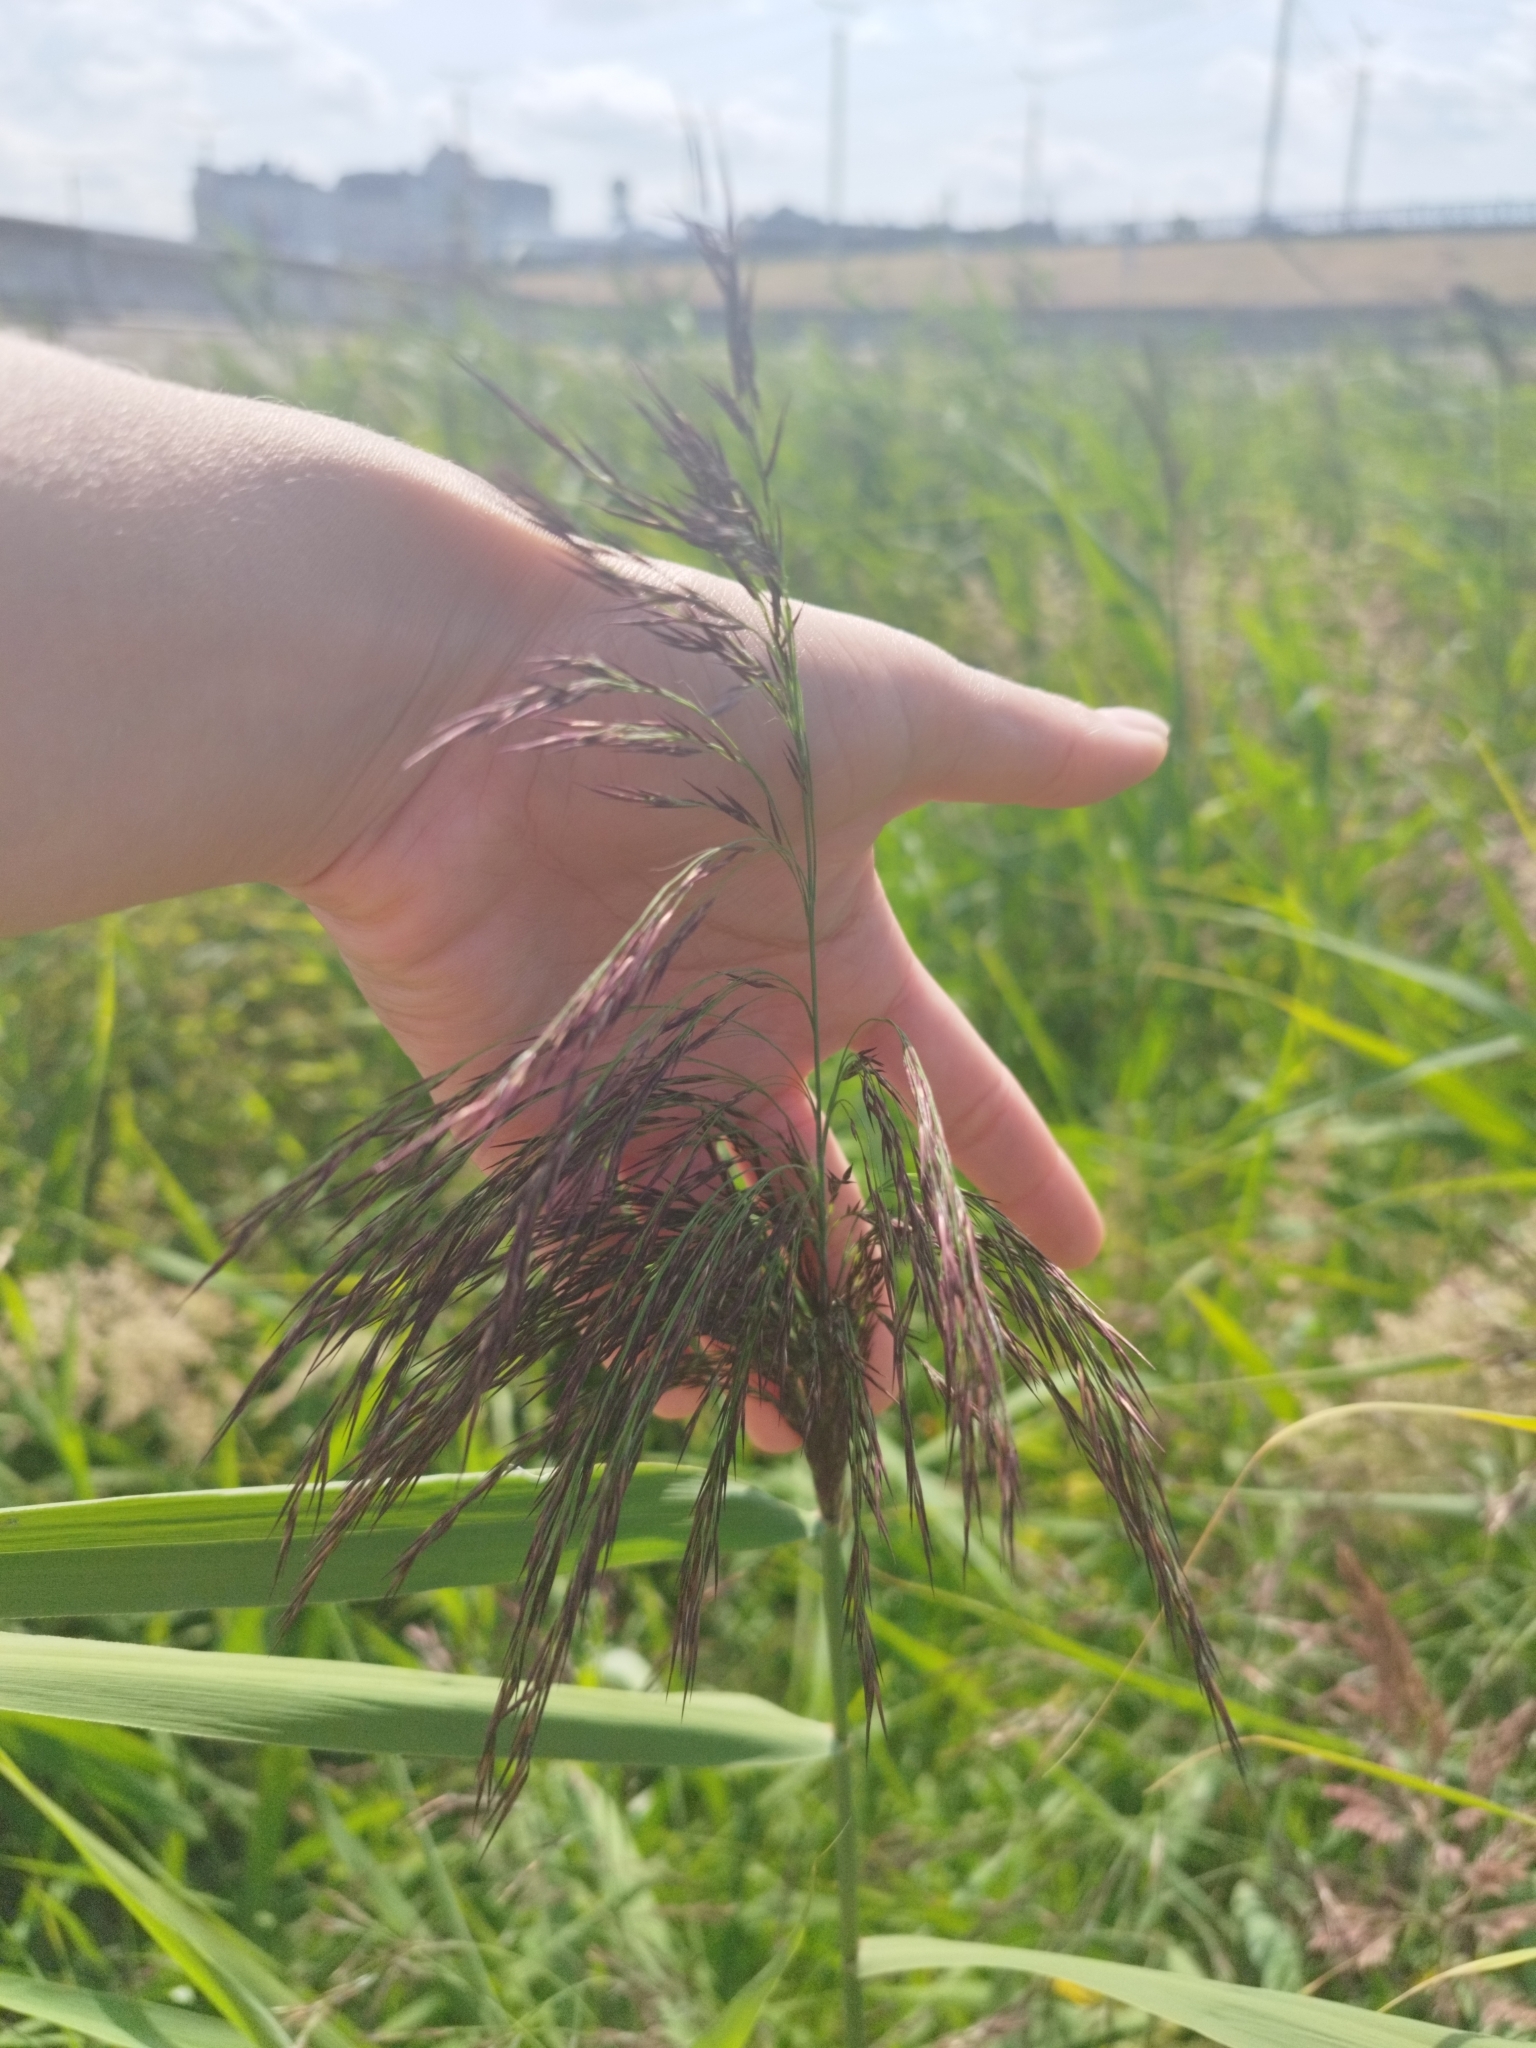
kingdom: Plantae
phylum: Tracheophyta
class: Liliopsida
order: Poales
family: Poaceae
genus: Phragmites
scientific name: Phragmites australis
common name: Common reed
